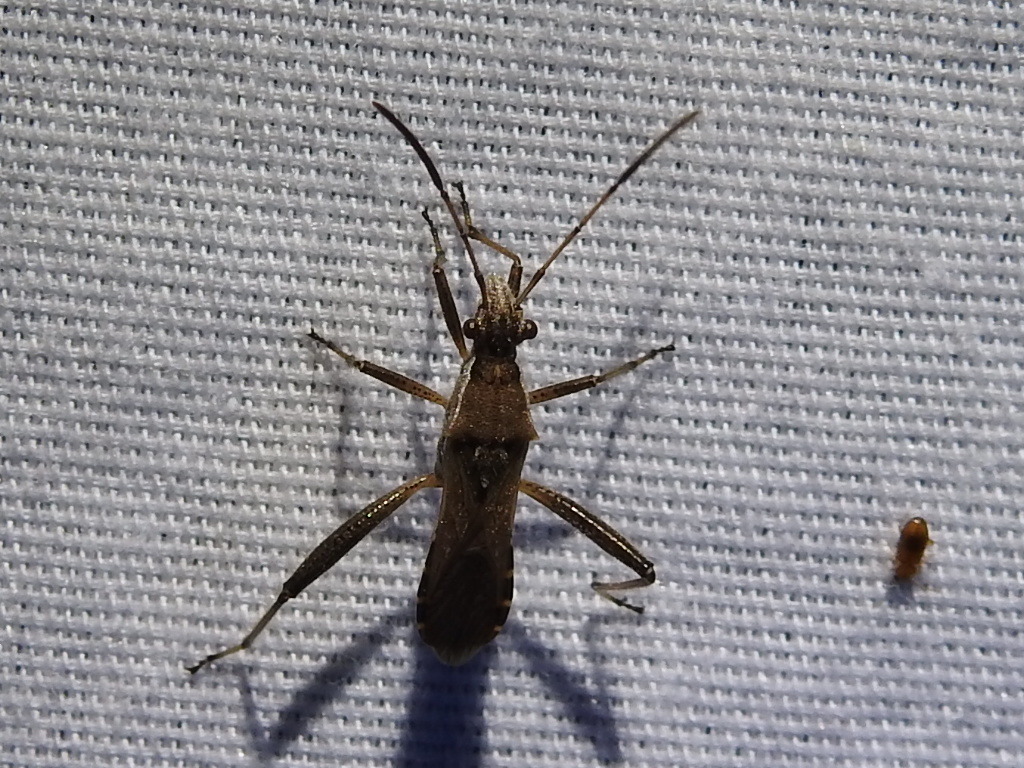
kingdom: Animalia
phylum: Arthropoda
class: Insecta
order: Hemiptera
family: Alydidae
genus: Alydus
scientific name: Alydus pilosulus
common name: Broad-headed bug
